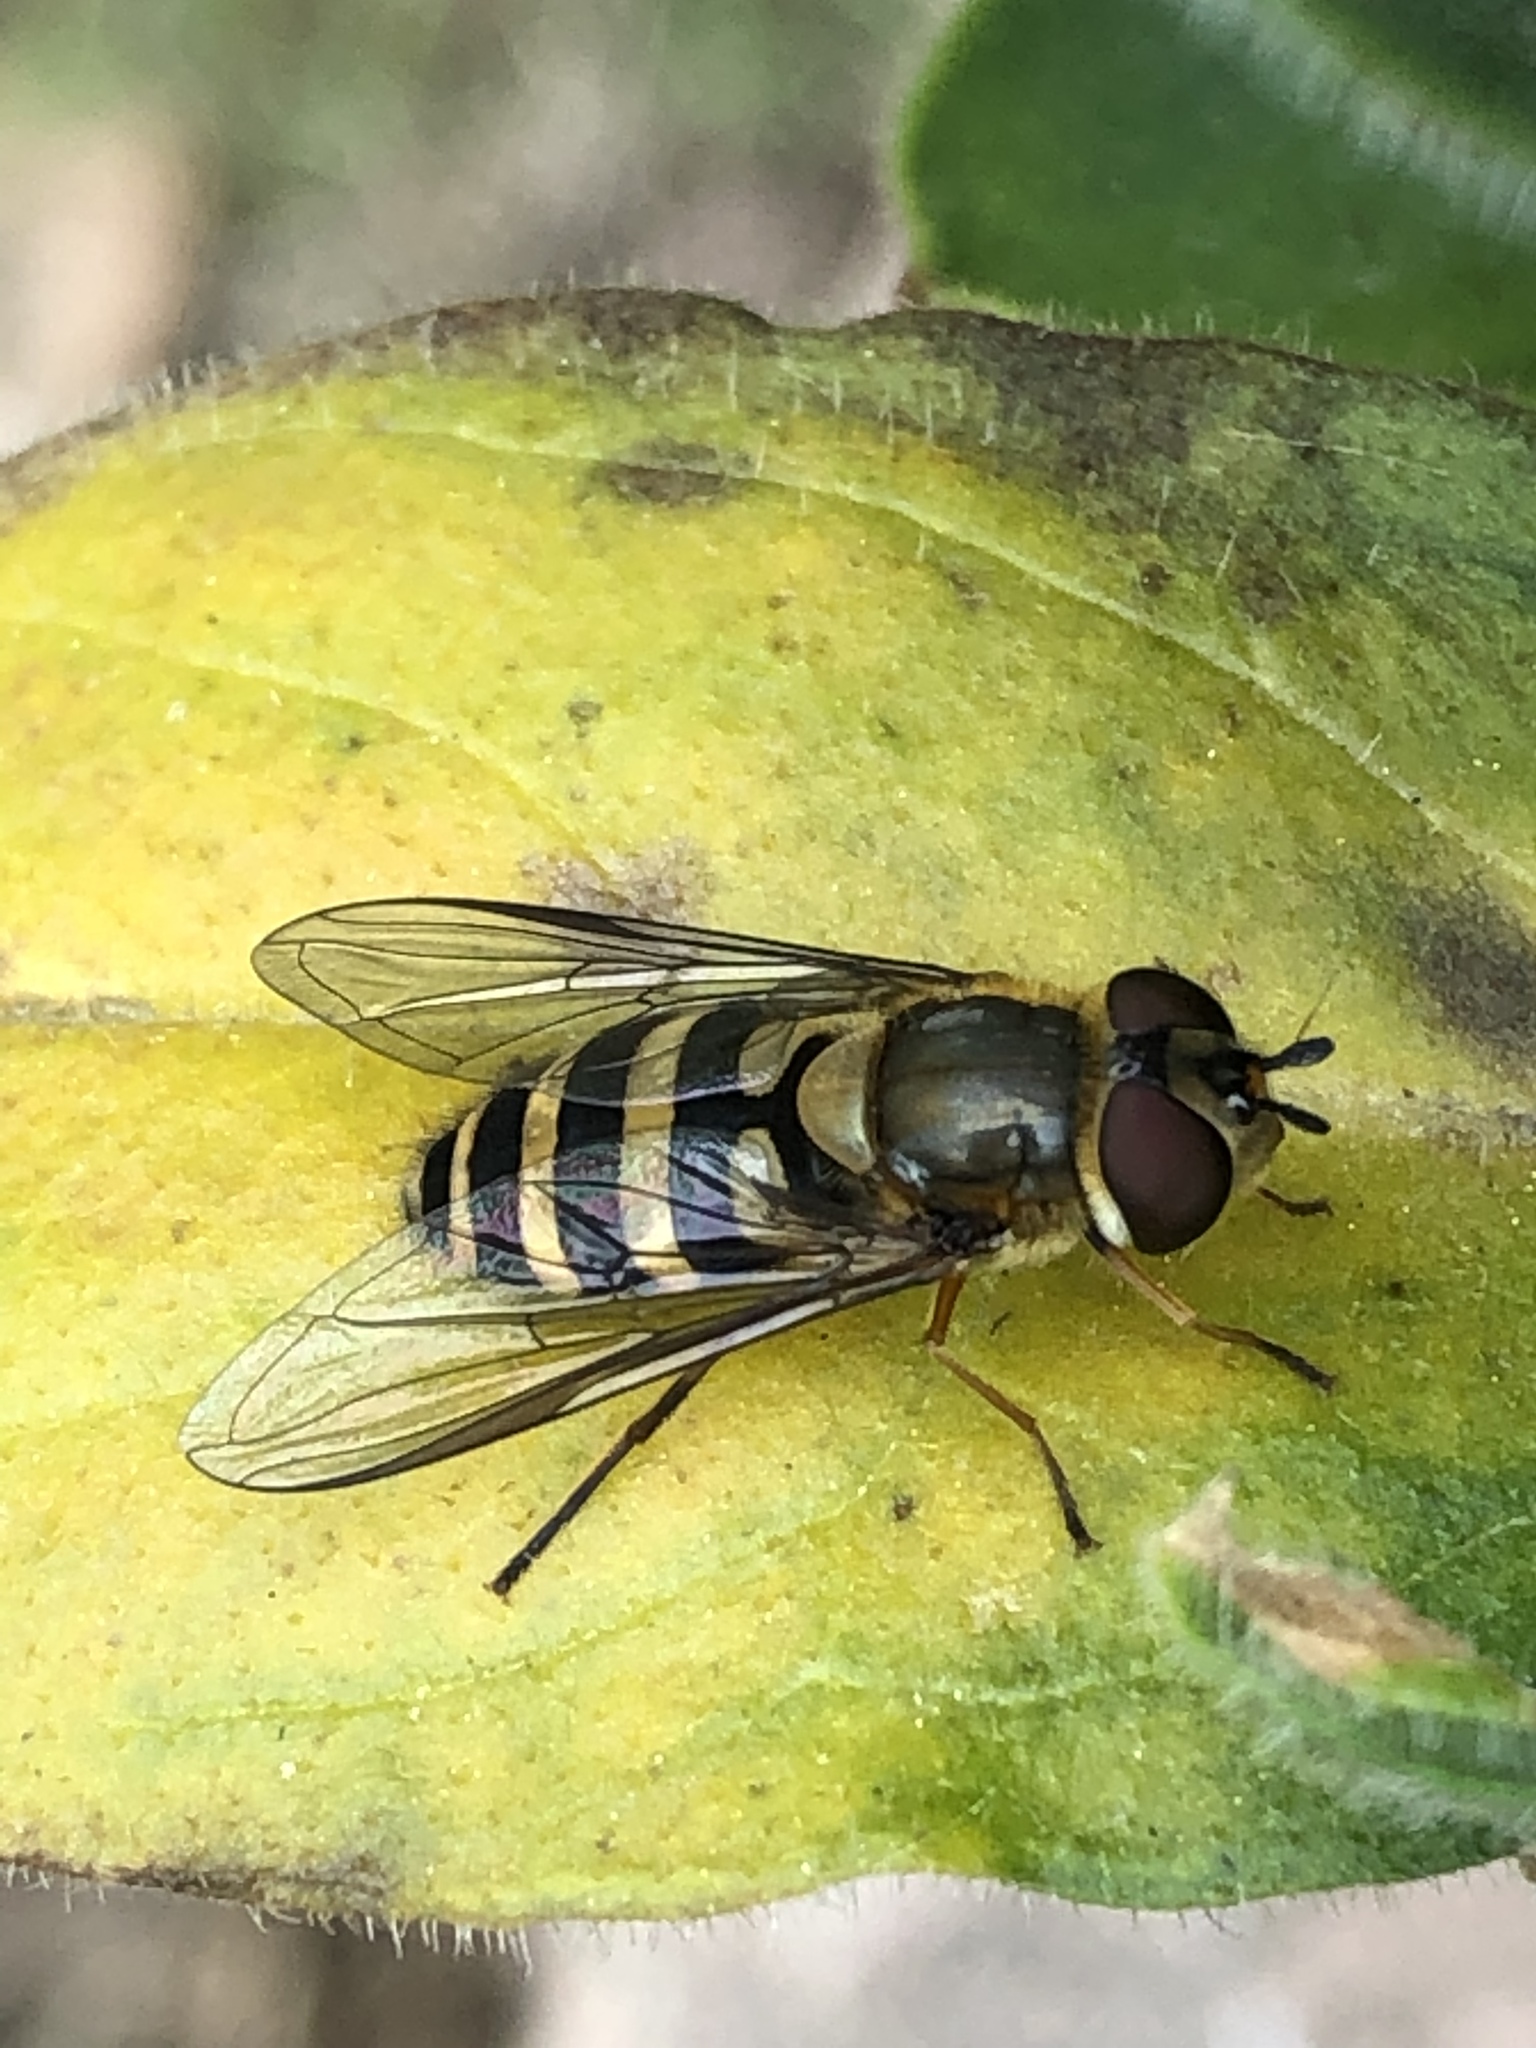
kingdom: Animalia
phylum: Arthropoda
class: Insecta
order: Diptera
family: Syrphidae
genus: Syrphus
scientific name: Syrphus
